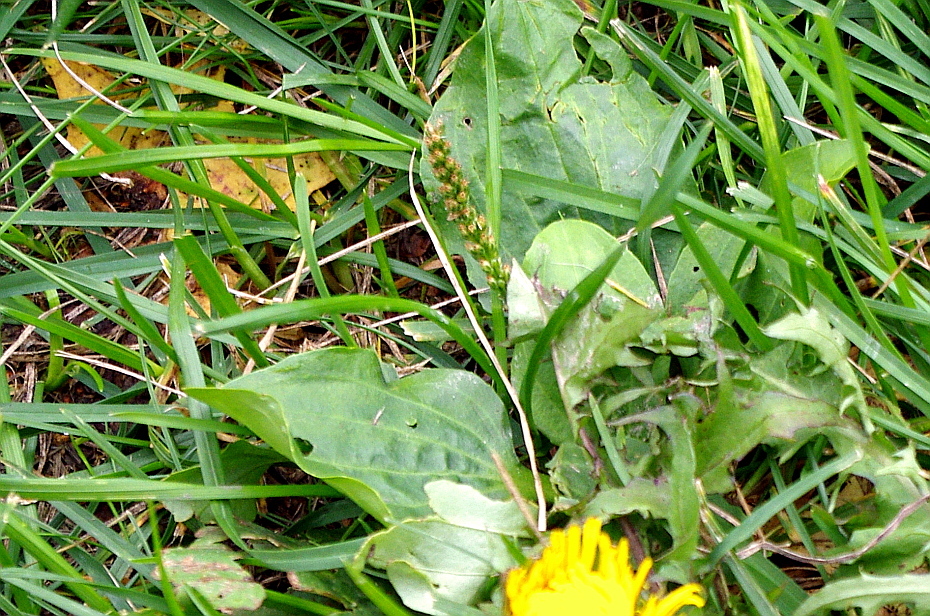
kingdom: Plantae
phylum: Tracheophyta
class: Magnoliopsida
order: Lamiales
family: Plantaginaceae
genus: Plantago
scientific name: Plantago major
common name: Common plantain
